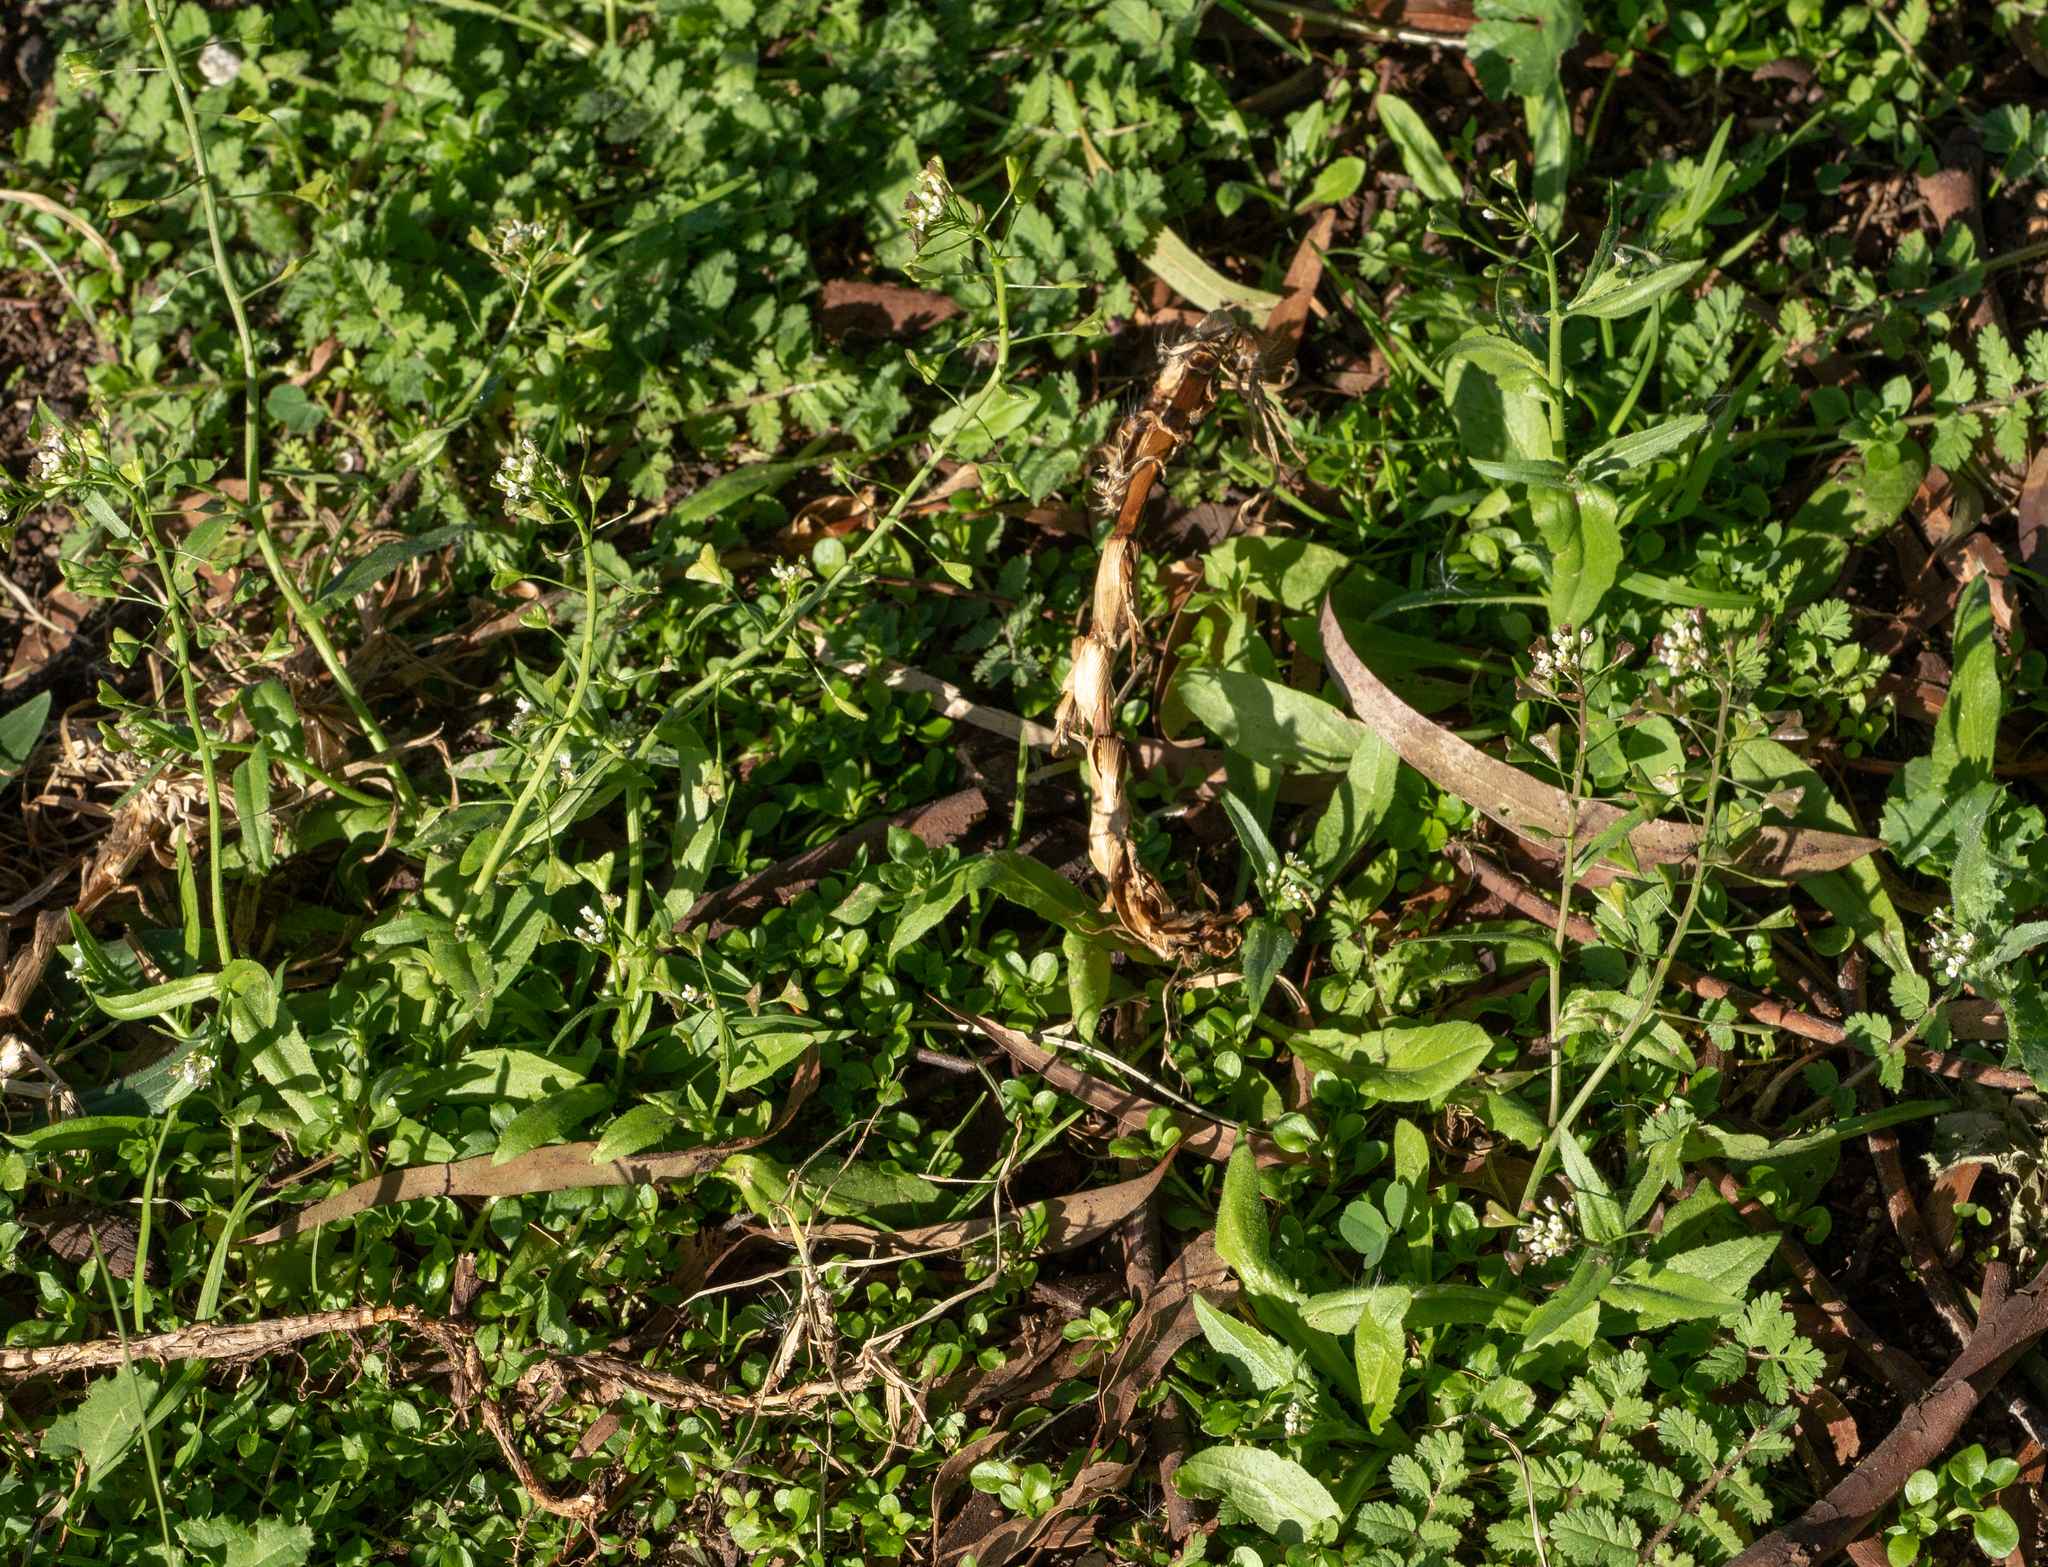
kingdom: Plantae
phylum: Tracheophyta
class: Magnoliopsida
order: Brassicales
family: Brassicaceae
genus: Capsella
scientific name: Capsella bursa-pastoris
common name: Shepherd's purse
